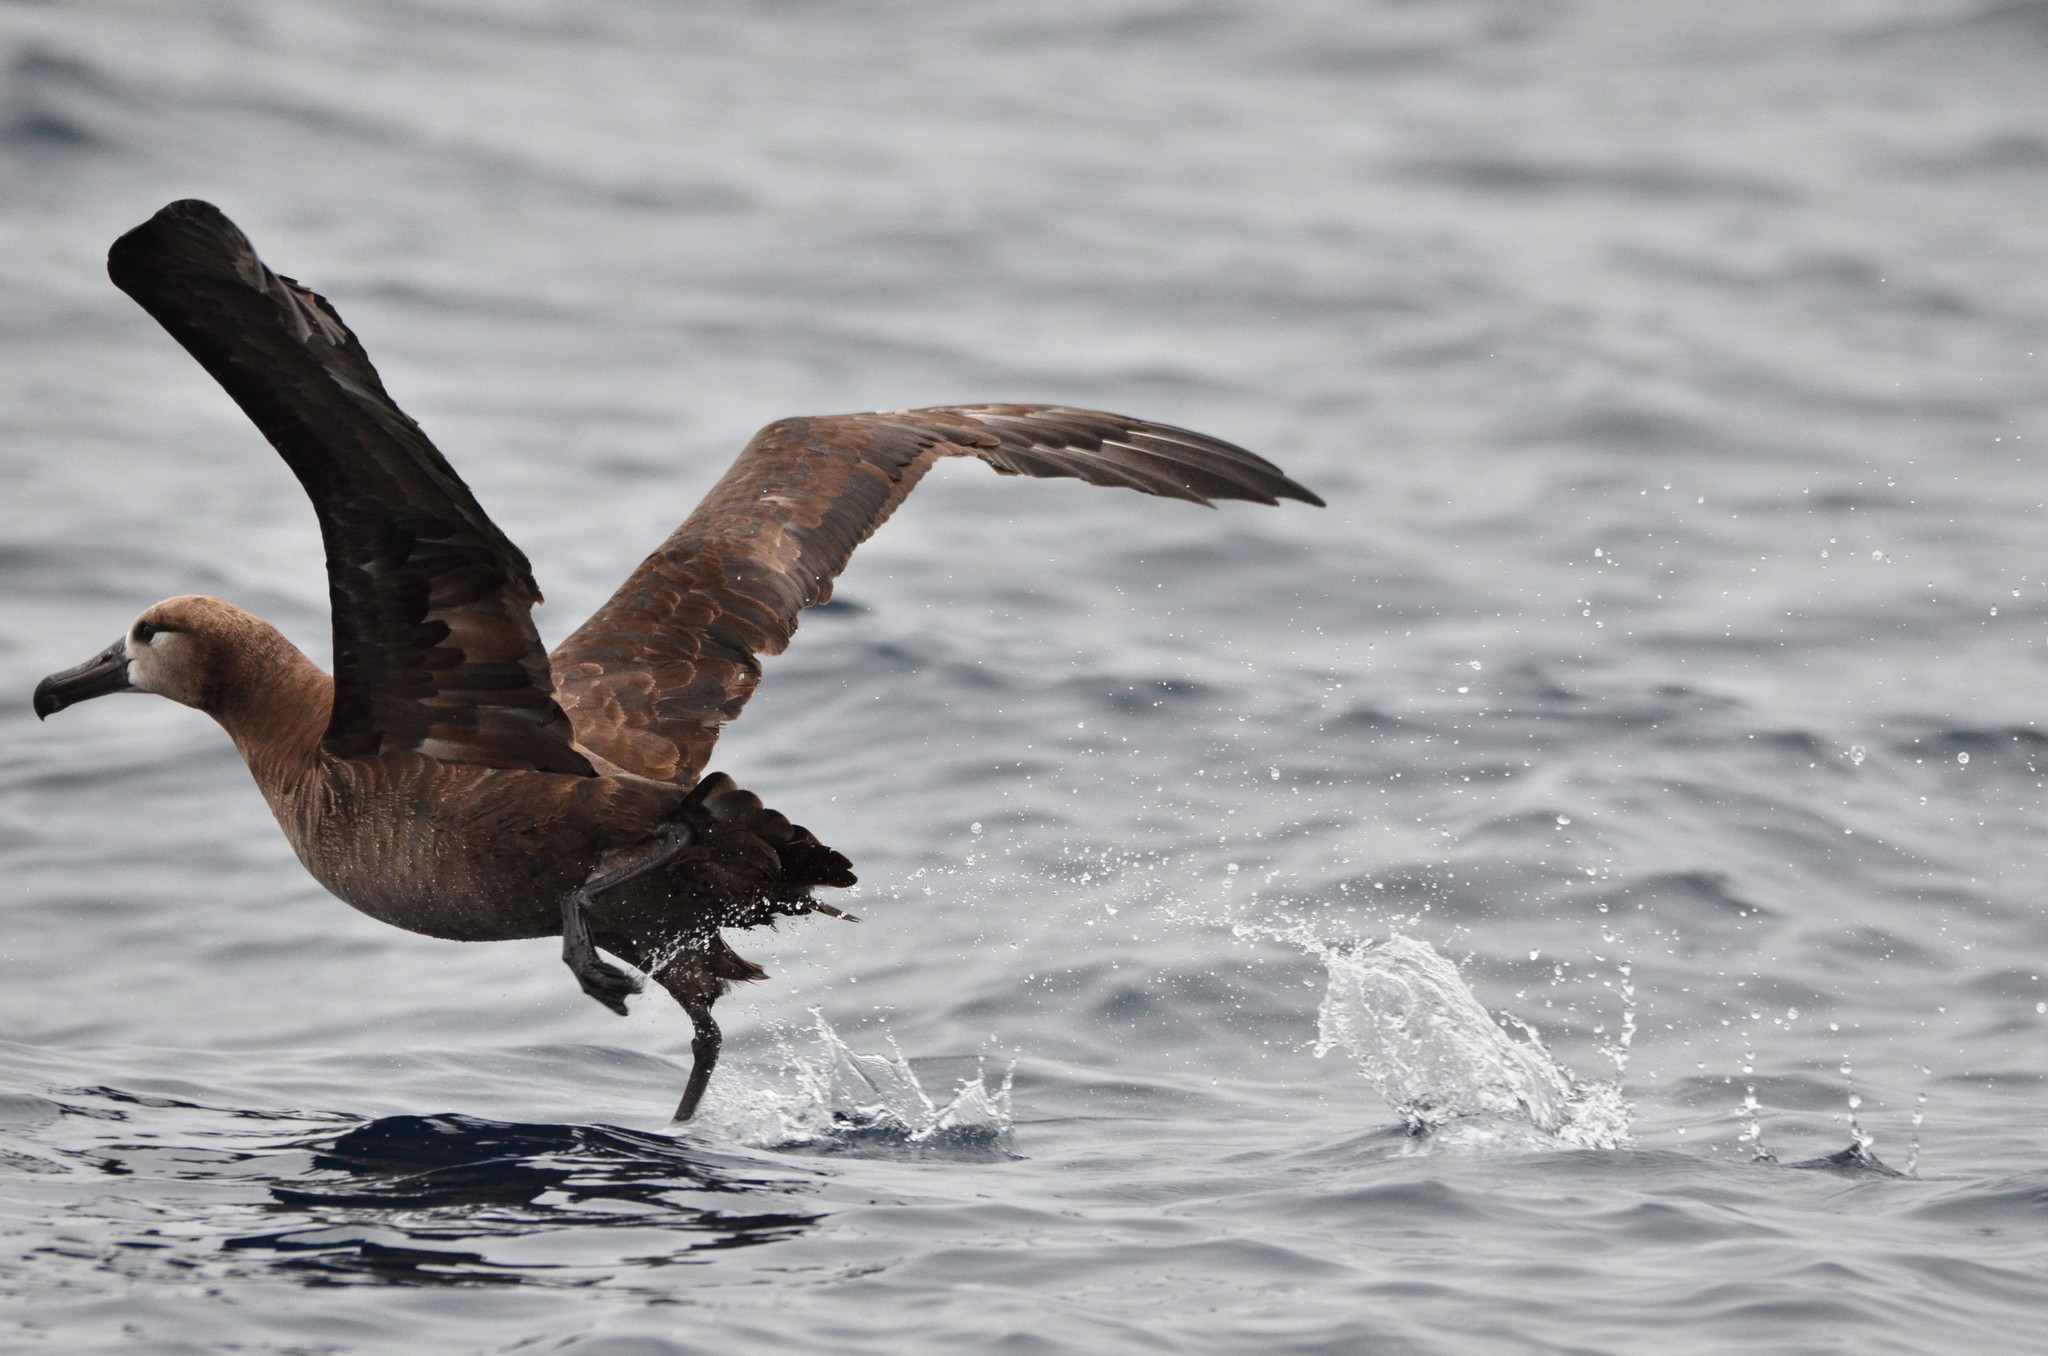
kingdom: Animalia
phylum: Chordata
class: Aves
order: Procellariiformes
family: Diomedeidae
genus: Phoebastria
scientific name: Phoebastria nigripes
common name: Black-footed albatross
